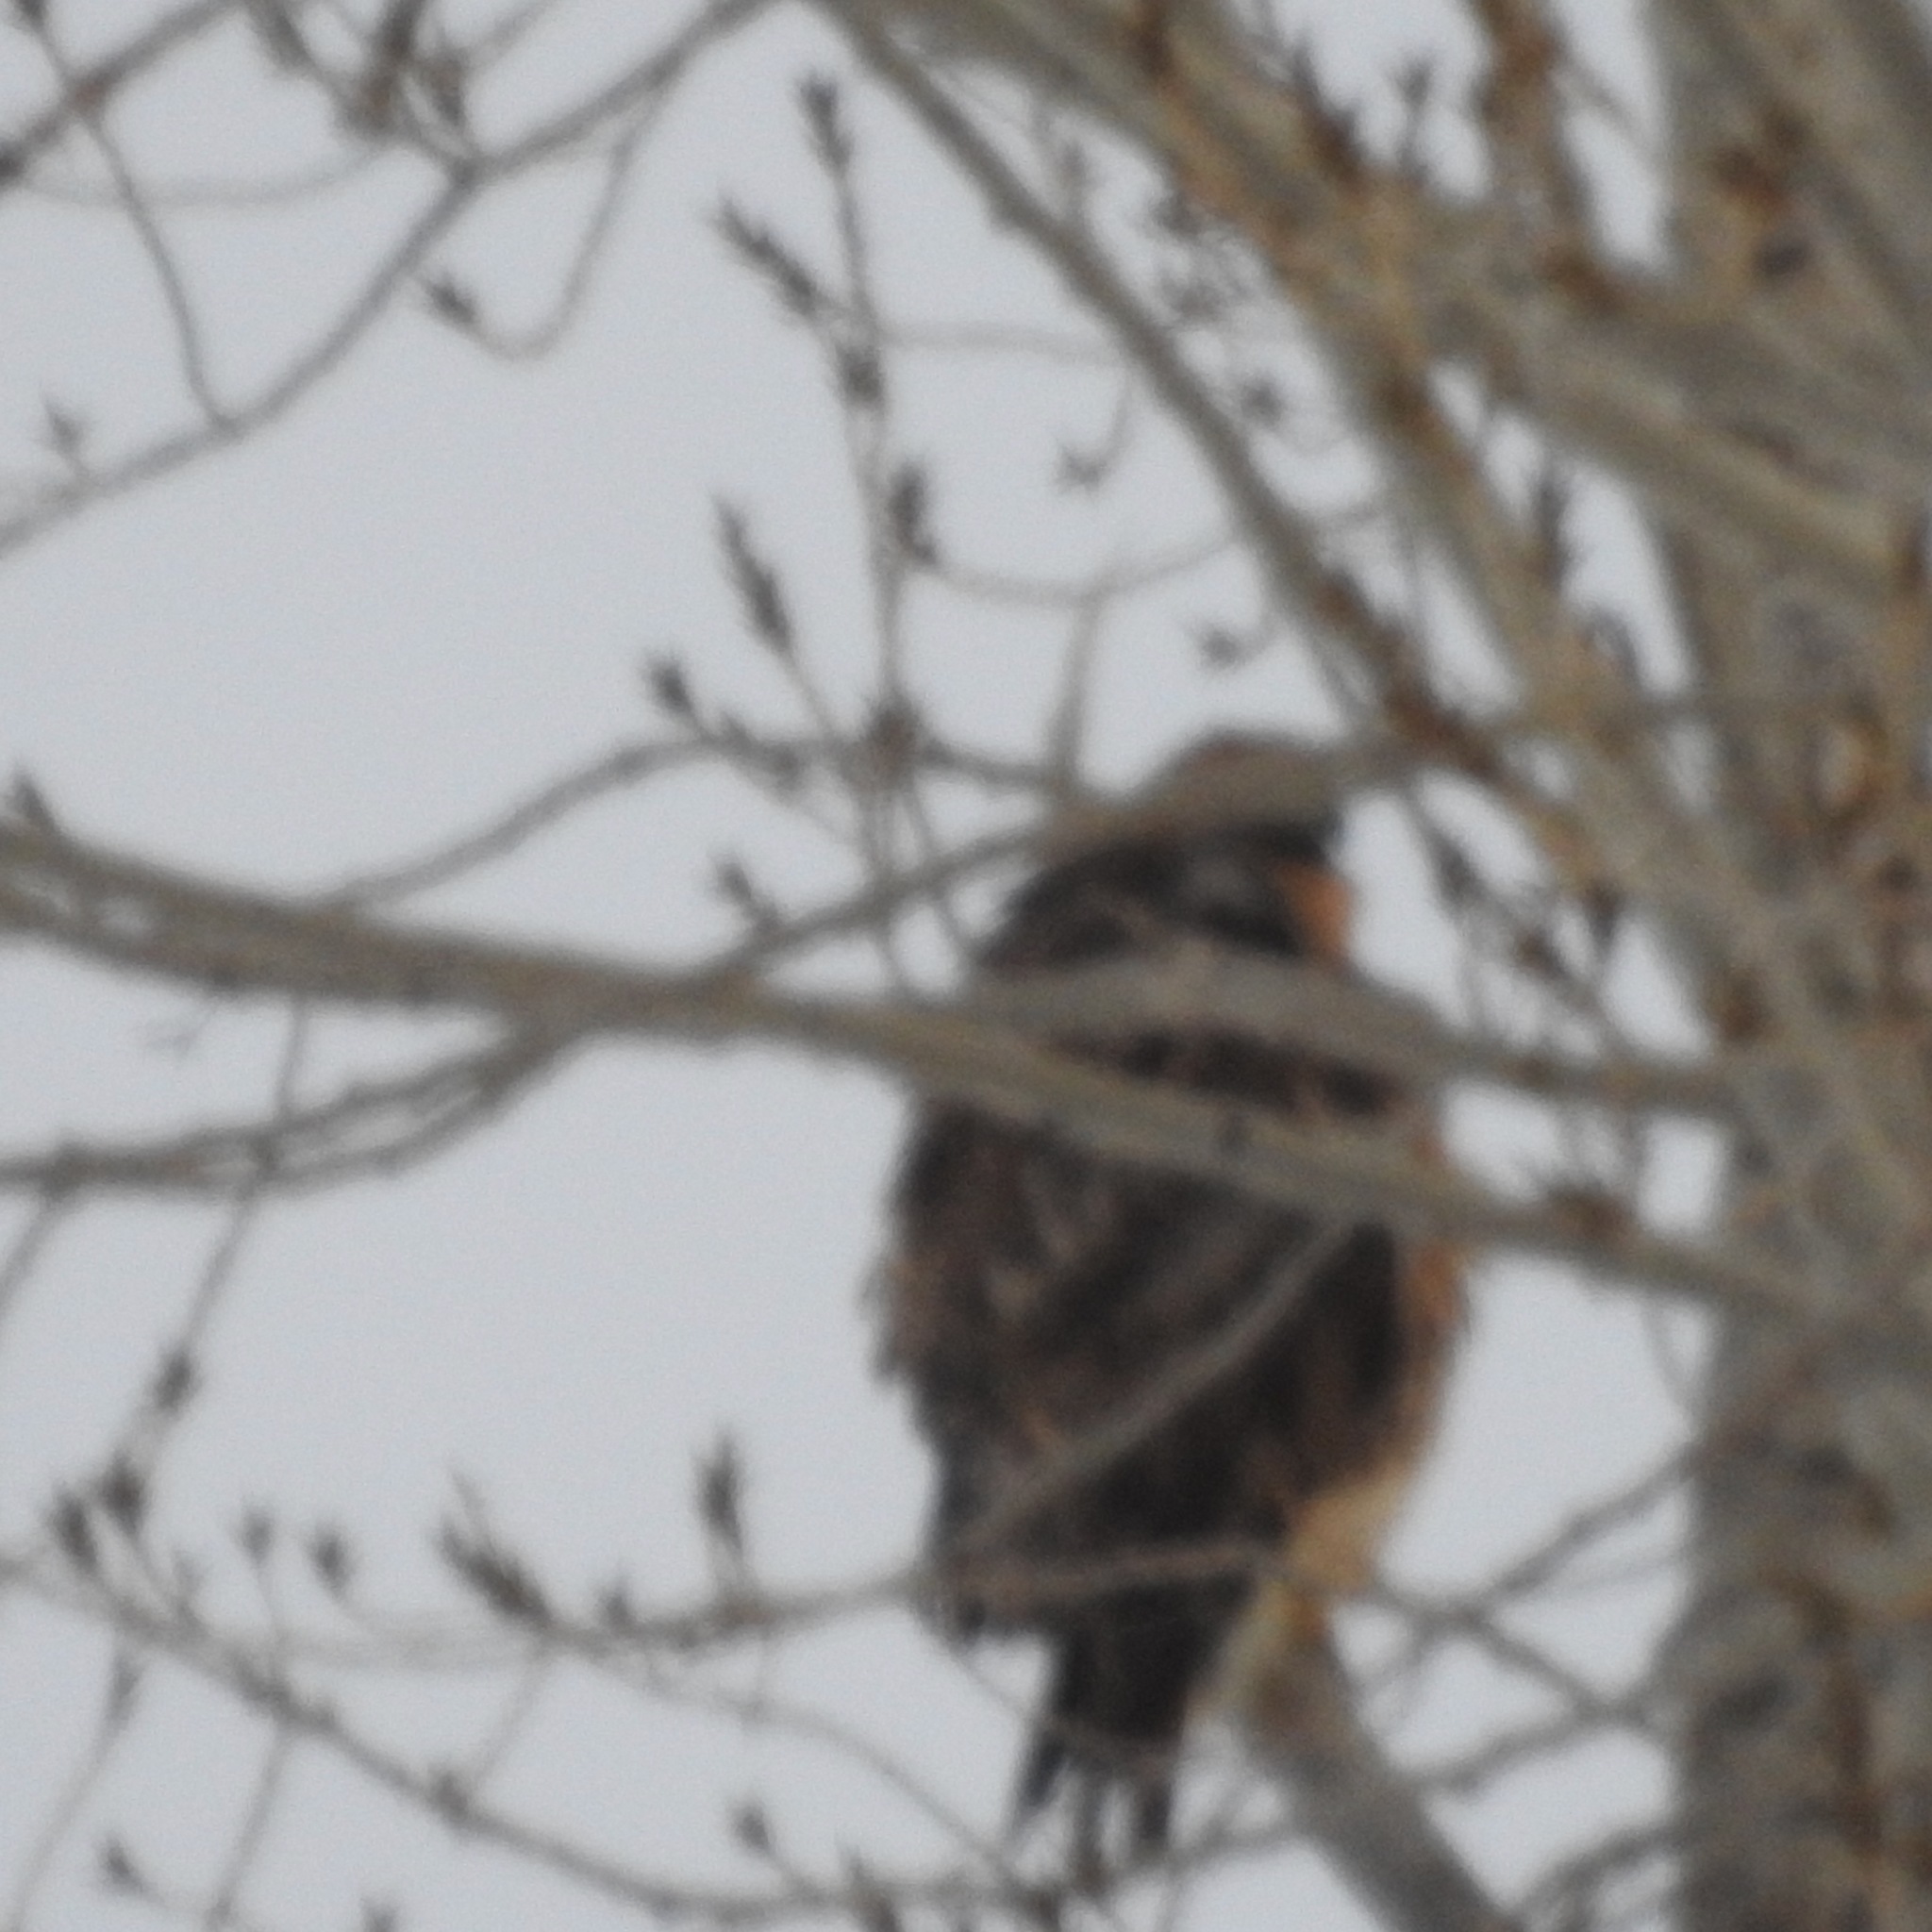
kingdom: Animalia
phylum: Chordata
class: Aves
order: Accipitriformes
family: Accipitridae
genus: Buteo
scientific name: Buteo jamaicensis
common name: Red-tailed hawk
